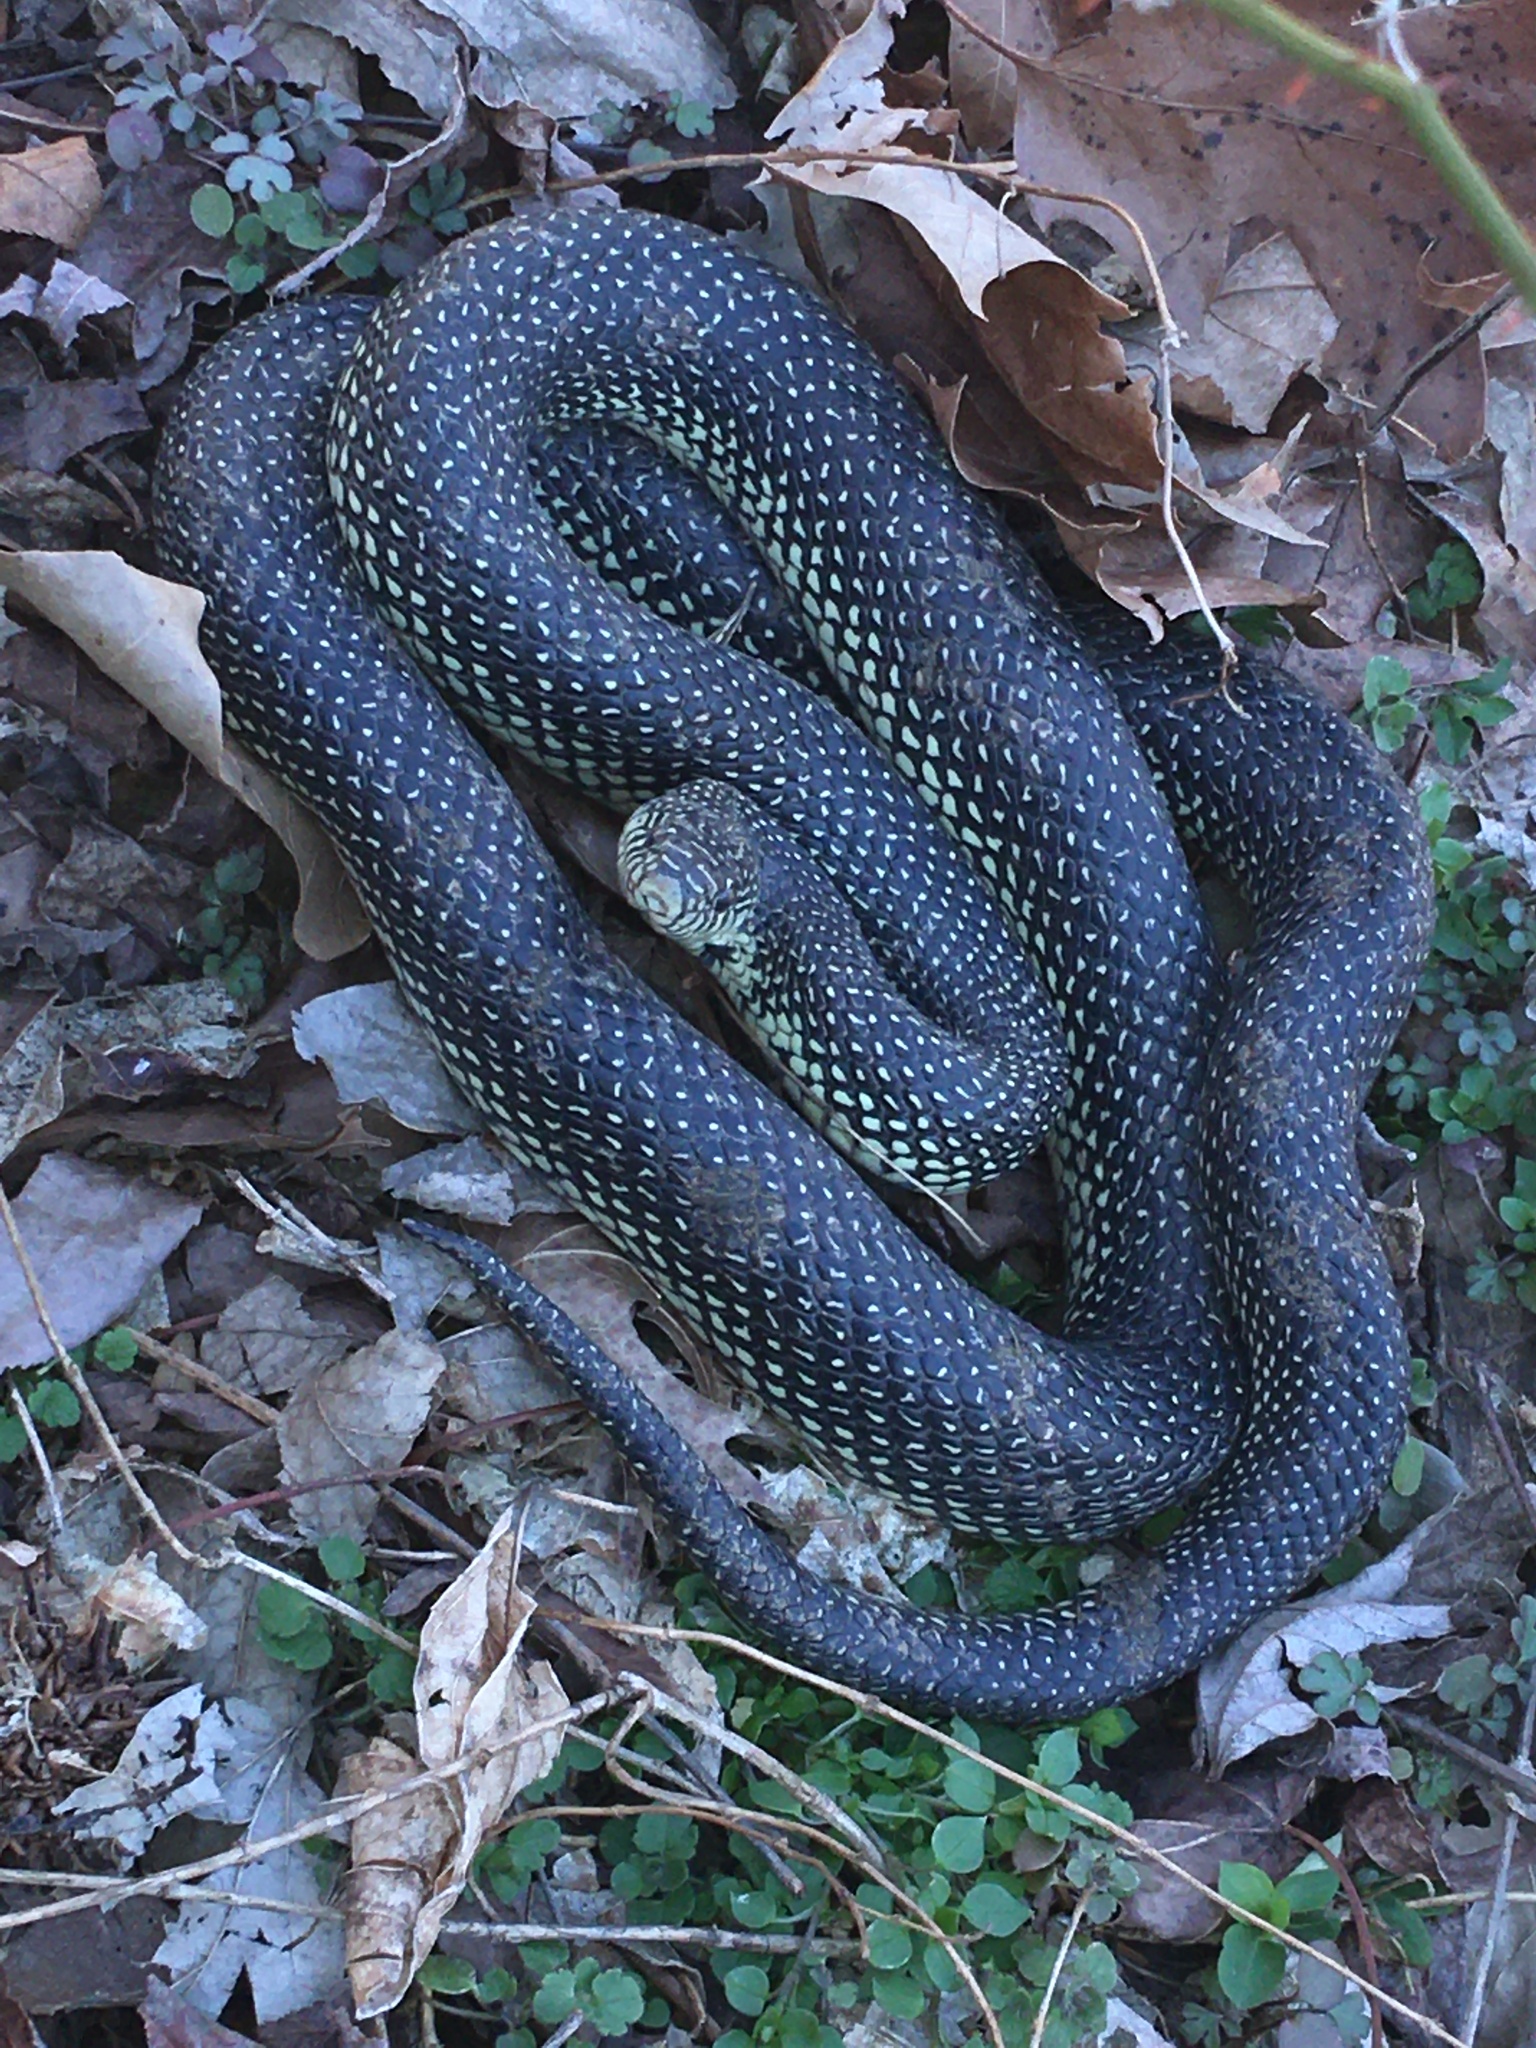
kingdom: Animalia
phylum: Chordata
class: Squamata
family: Colubridae
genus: Lampropeltis
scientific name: Lampropeltis holbrooki
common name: Speckled kingsnake
